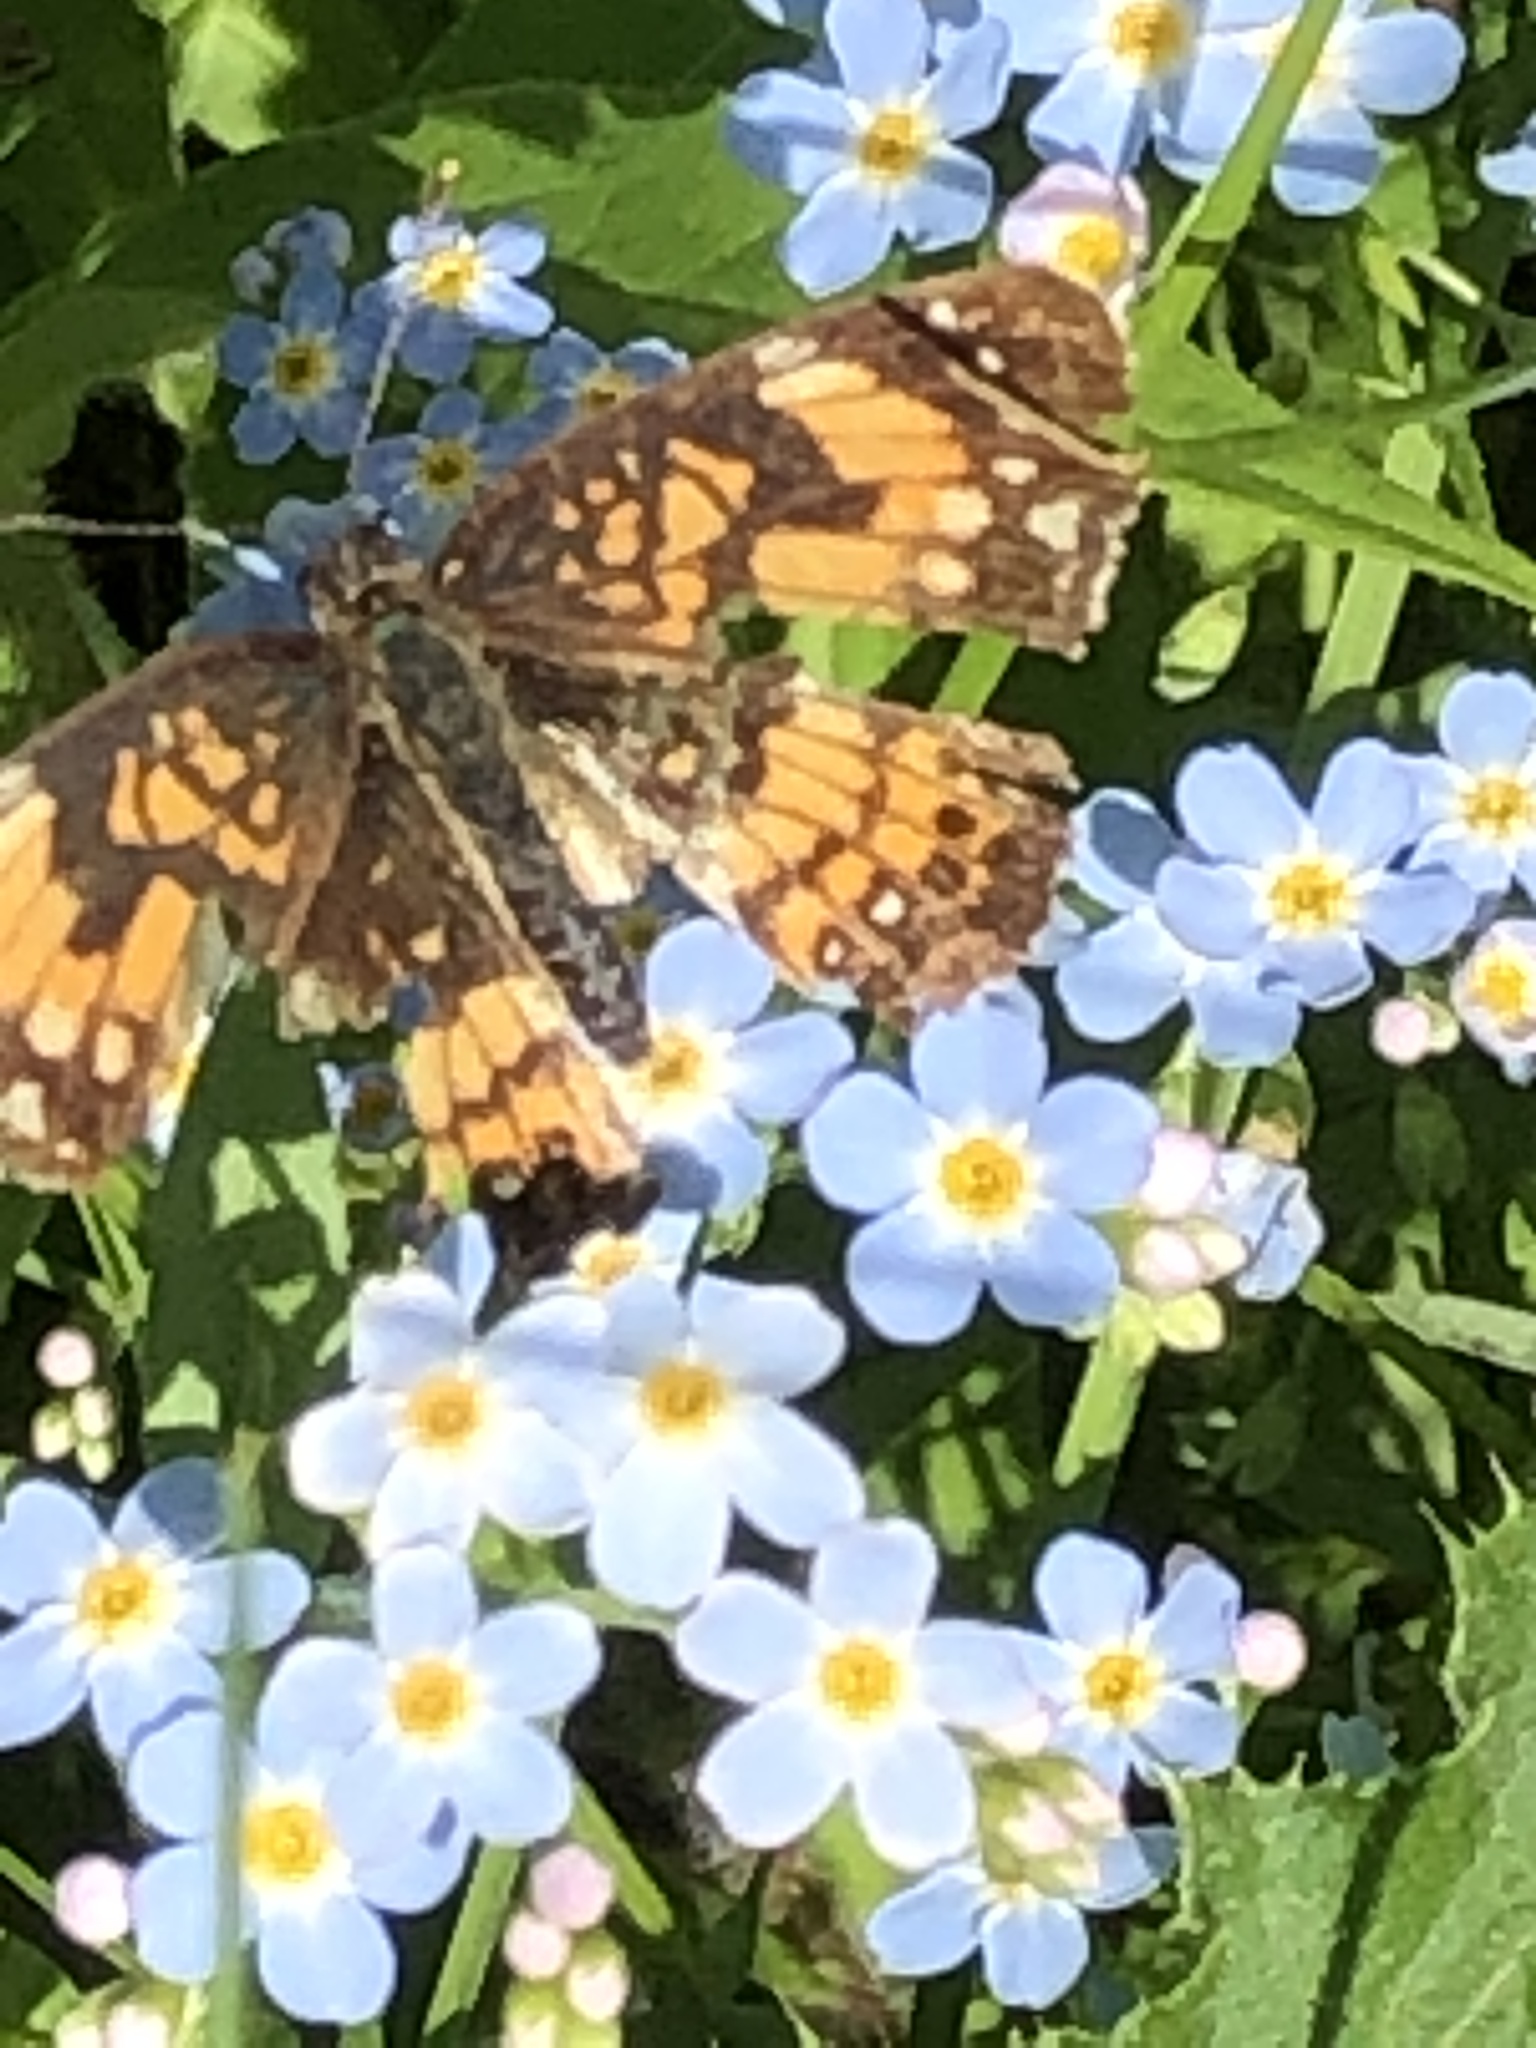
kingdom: Animalia
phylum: Arthropoda
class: Insecta
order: Lepidoptera
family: Nymphalidae
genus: Chlosyne
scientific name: Chlosyne nycteis
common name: Silvery checkerspot
